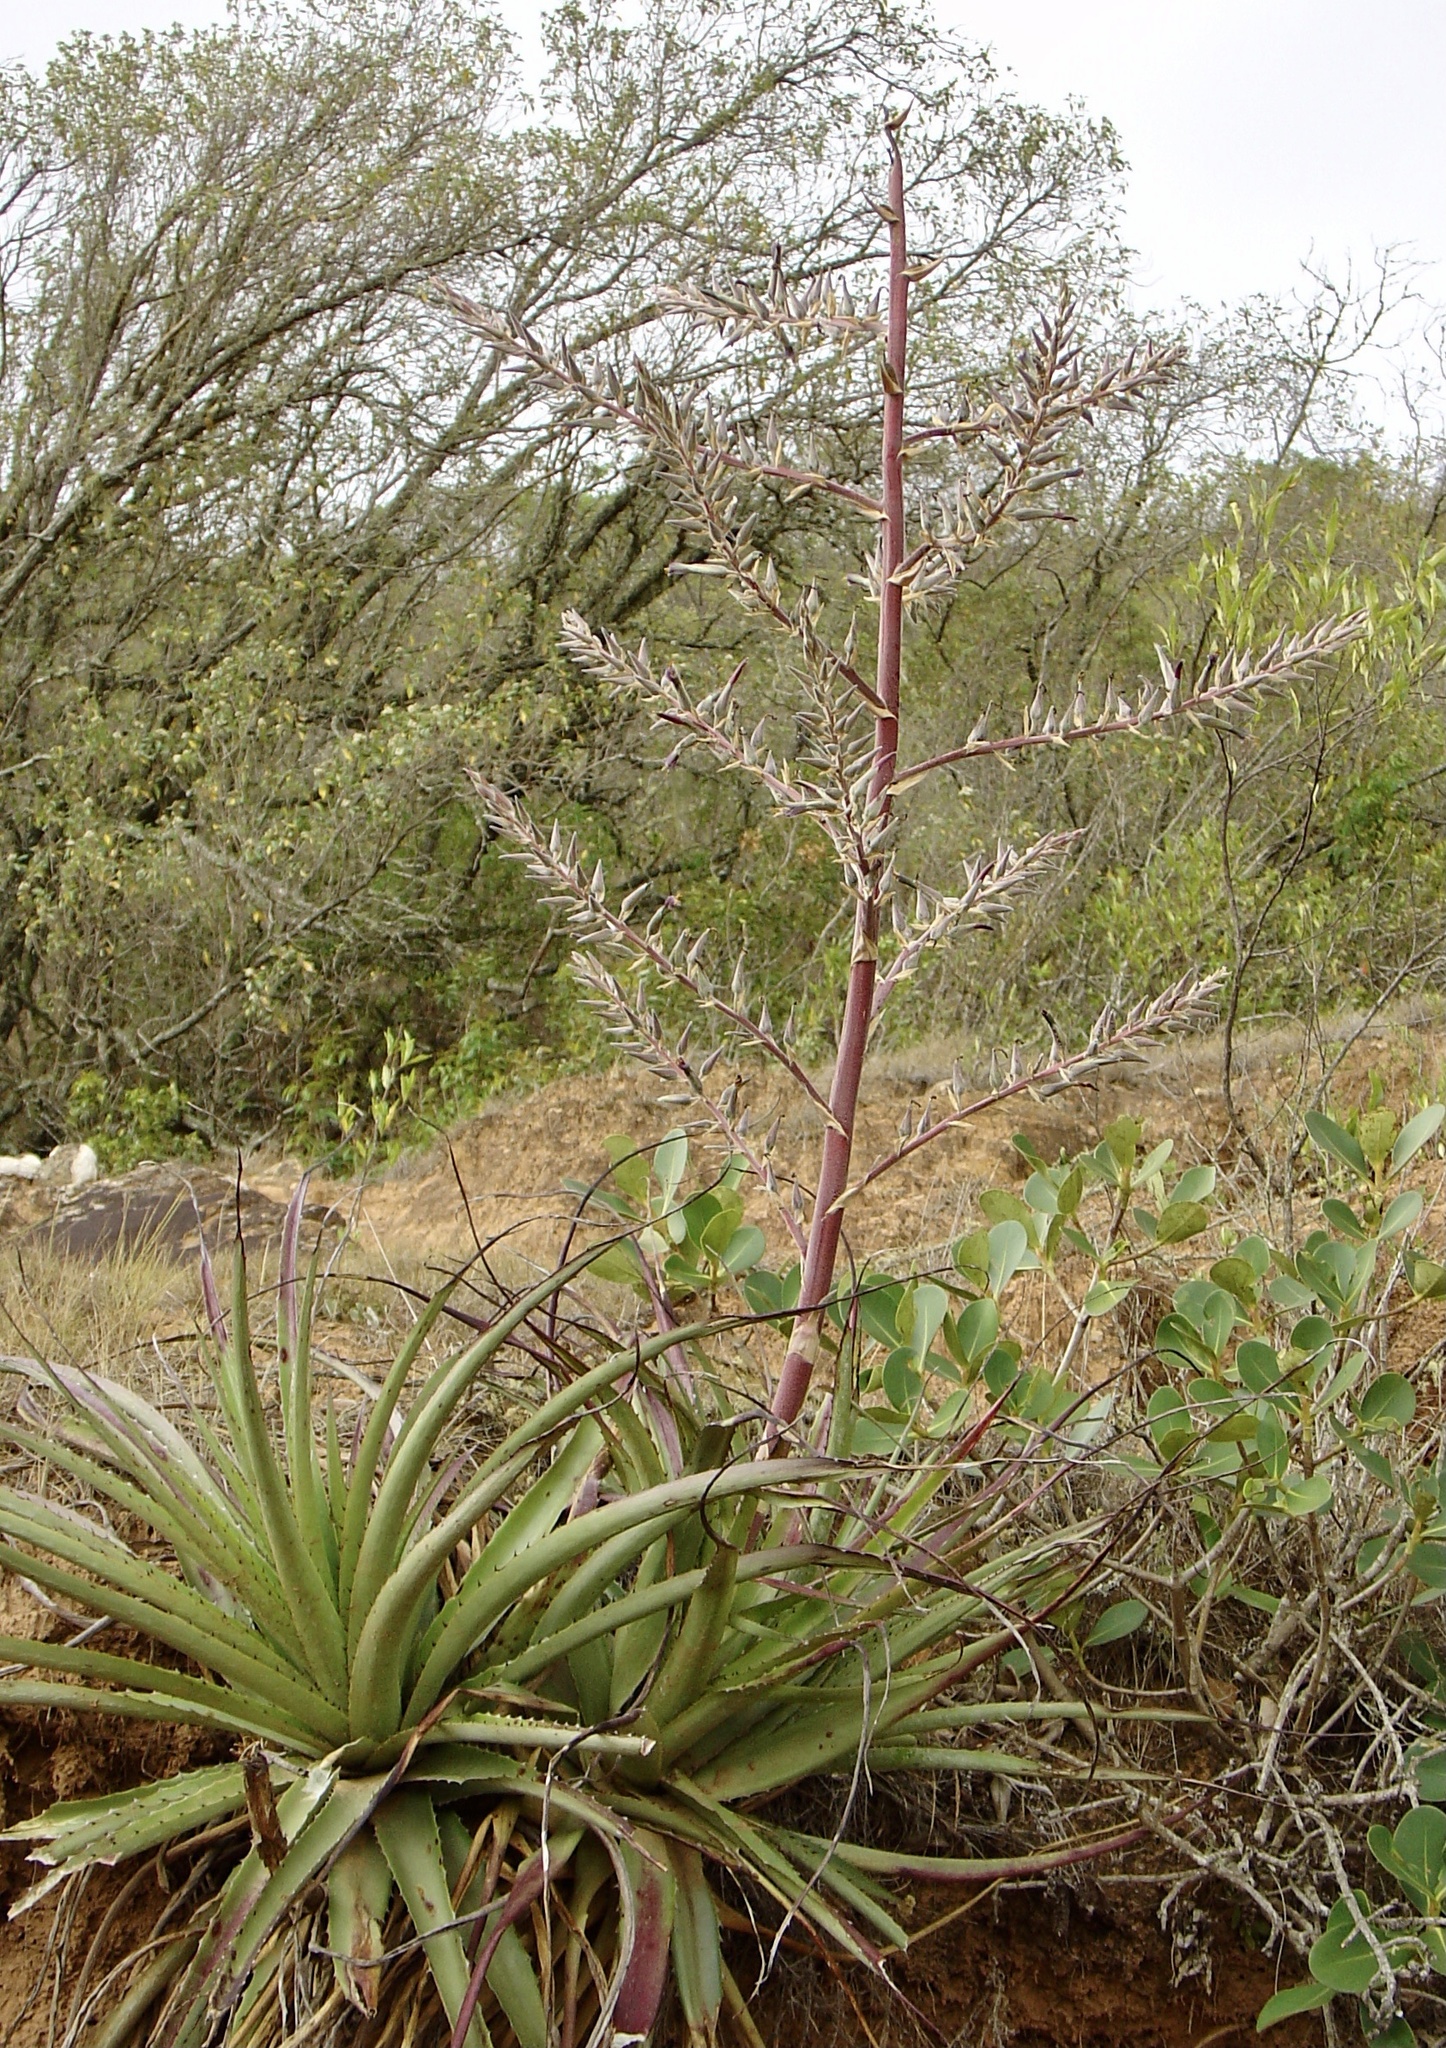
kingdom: Plantae
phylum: Tracheophyta
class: Liliopsida
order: Poales
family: Bromeliaceae
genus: Puya
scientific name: Puya claudiae
